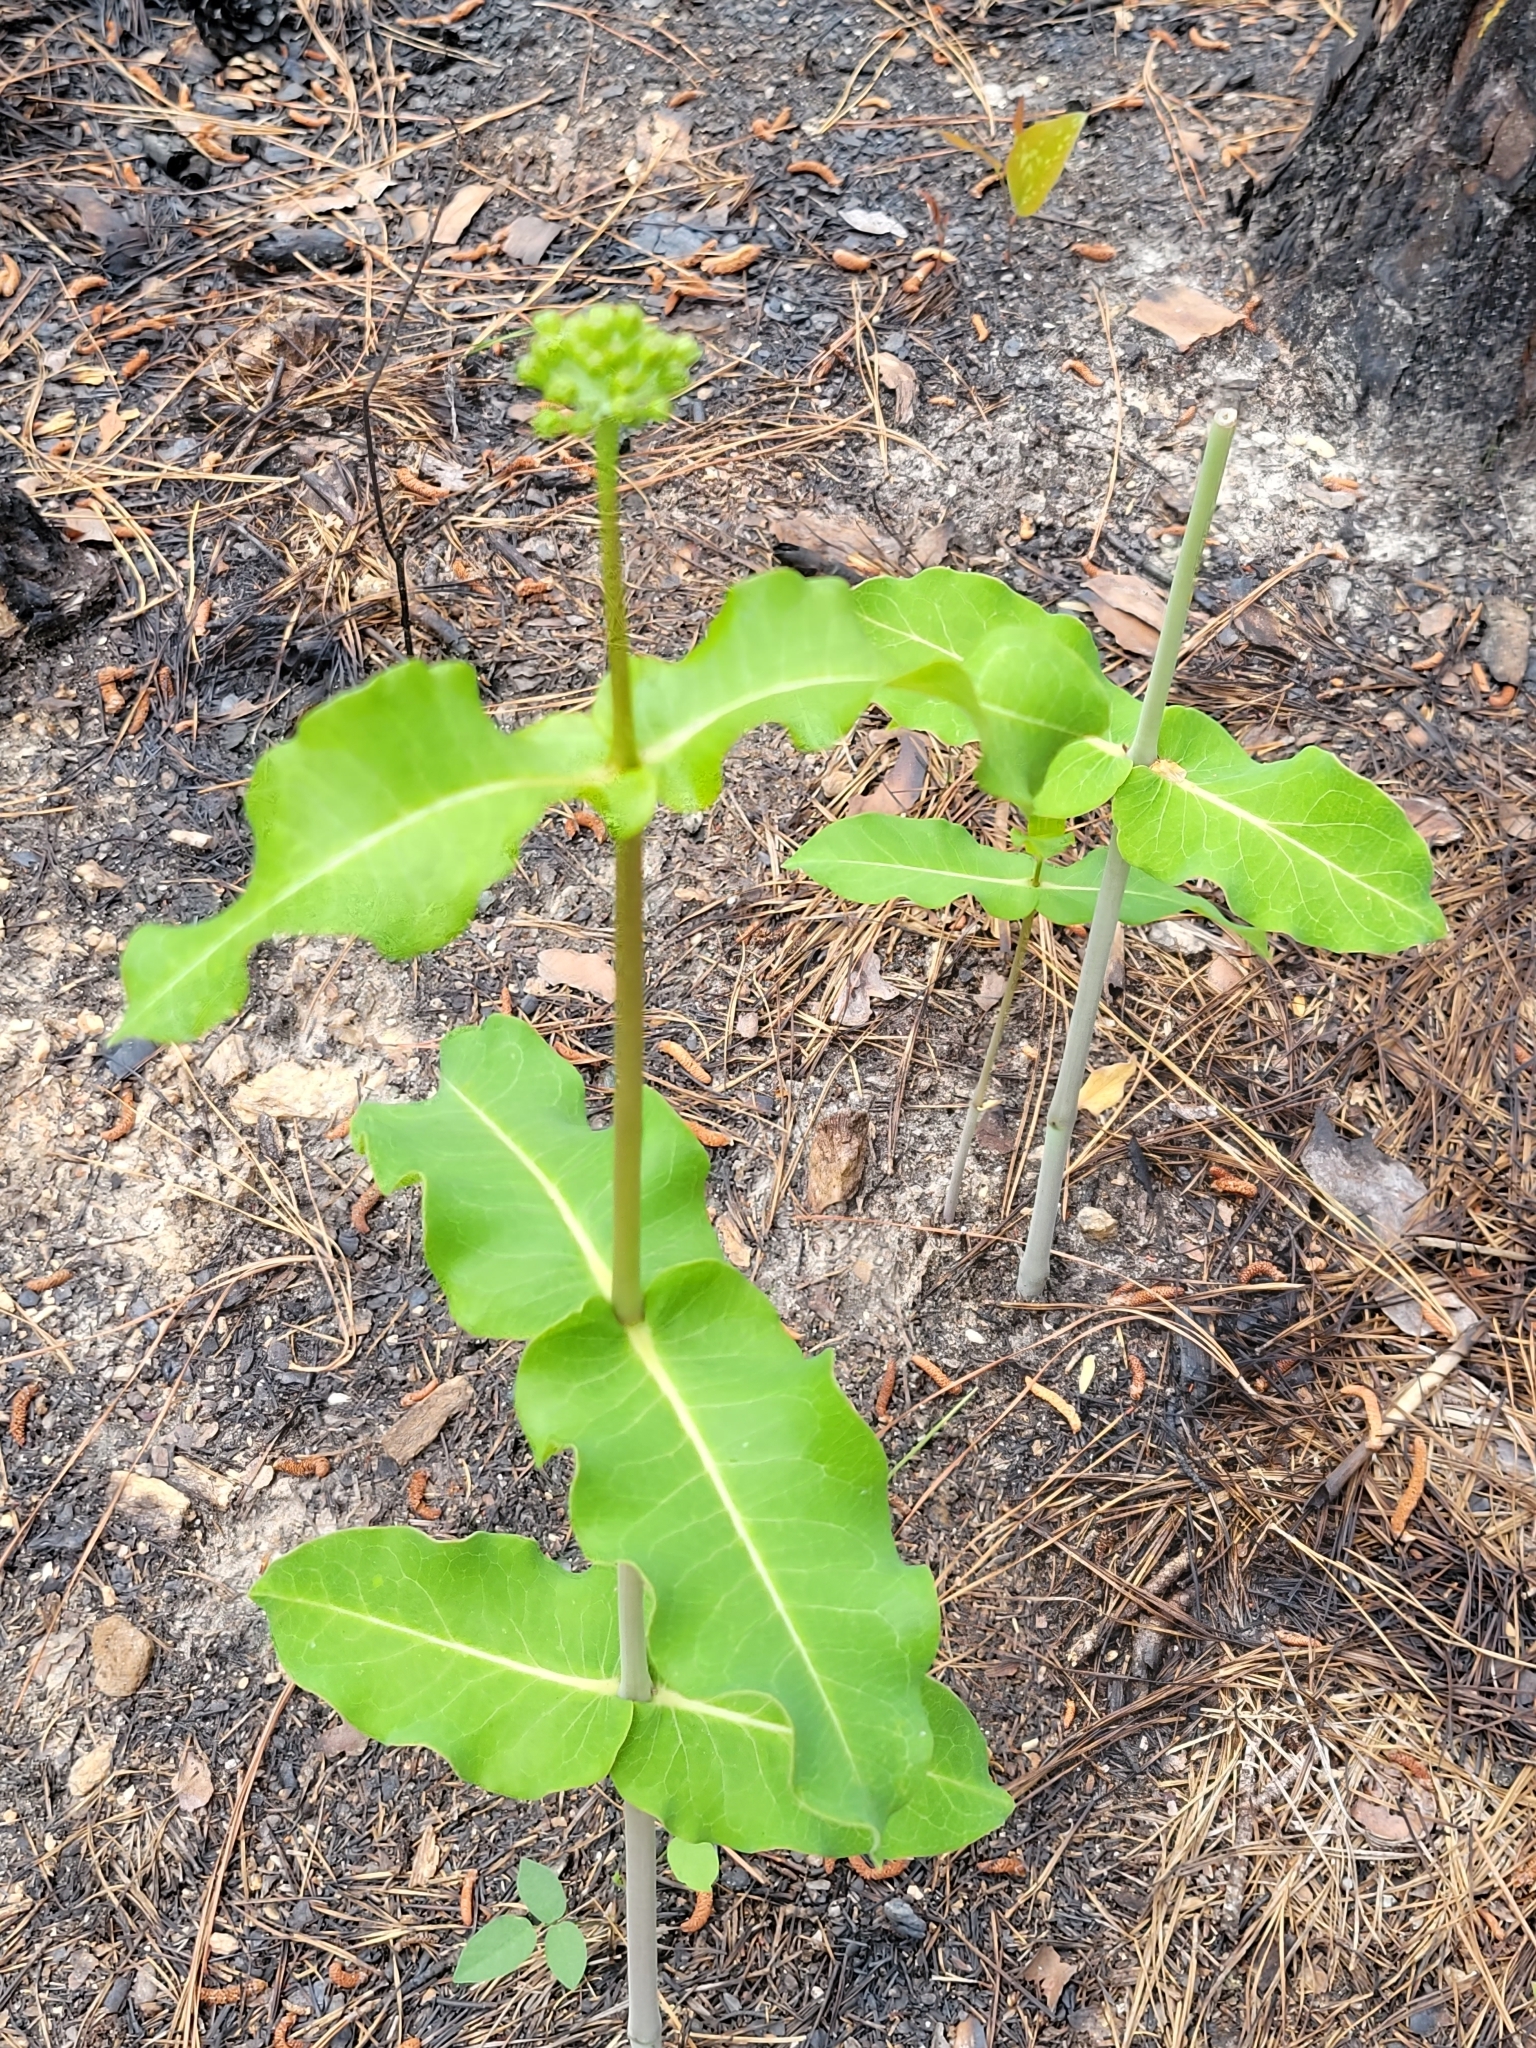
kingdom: Plantae
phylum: Tracheophyta
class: Magnoliopsida
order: Gentianales
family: Apocynaceae
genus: Asclepias
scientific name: Asclepias amplexicaulis
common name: Blunt-leaf milkweed
